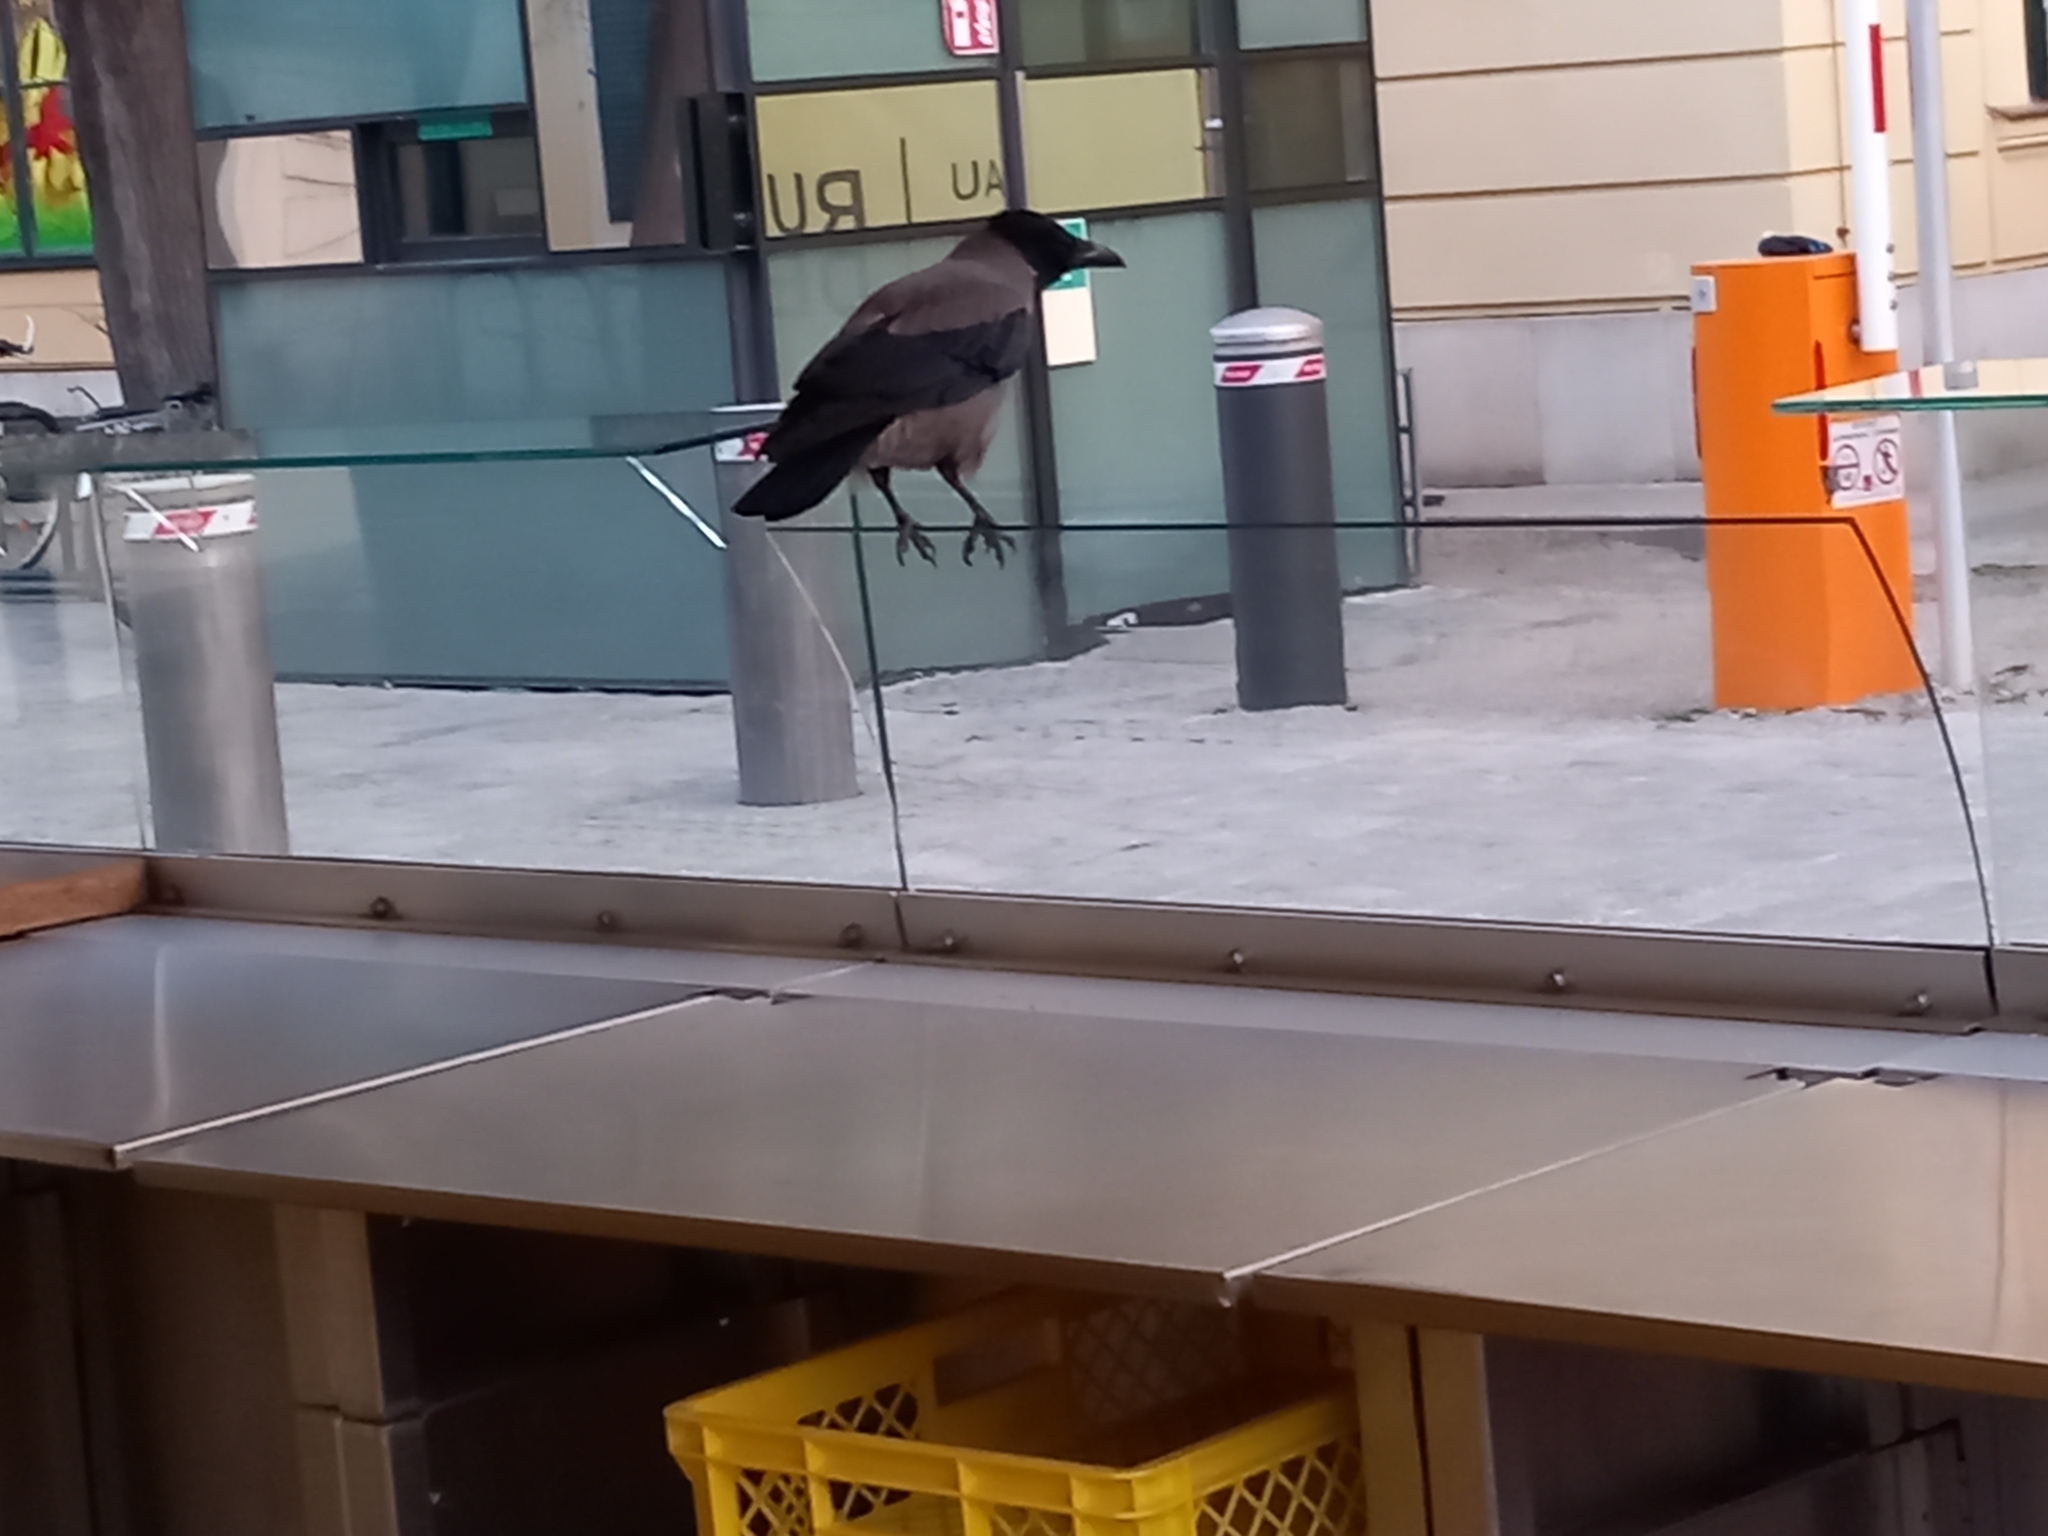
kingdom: Animalia
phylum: Chordata
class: Aves
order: Passeriformes
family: Corvidae
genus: Corvus
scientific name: Corvus cornix
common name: Hooded crow
